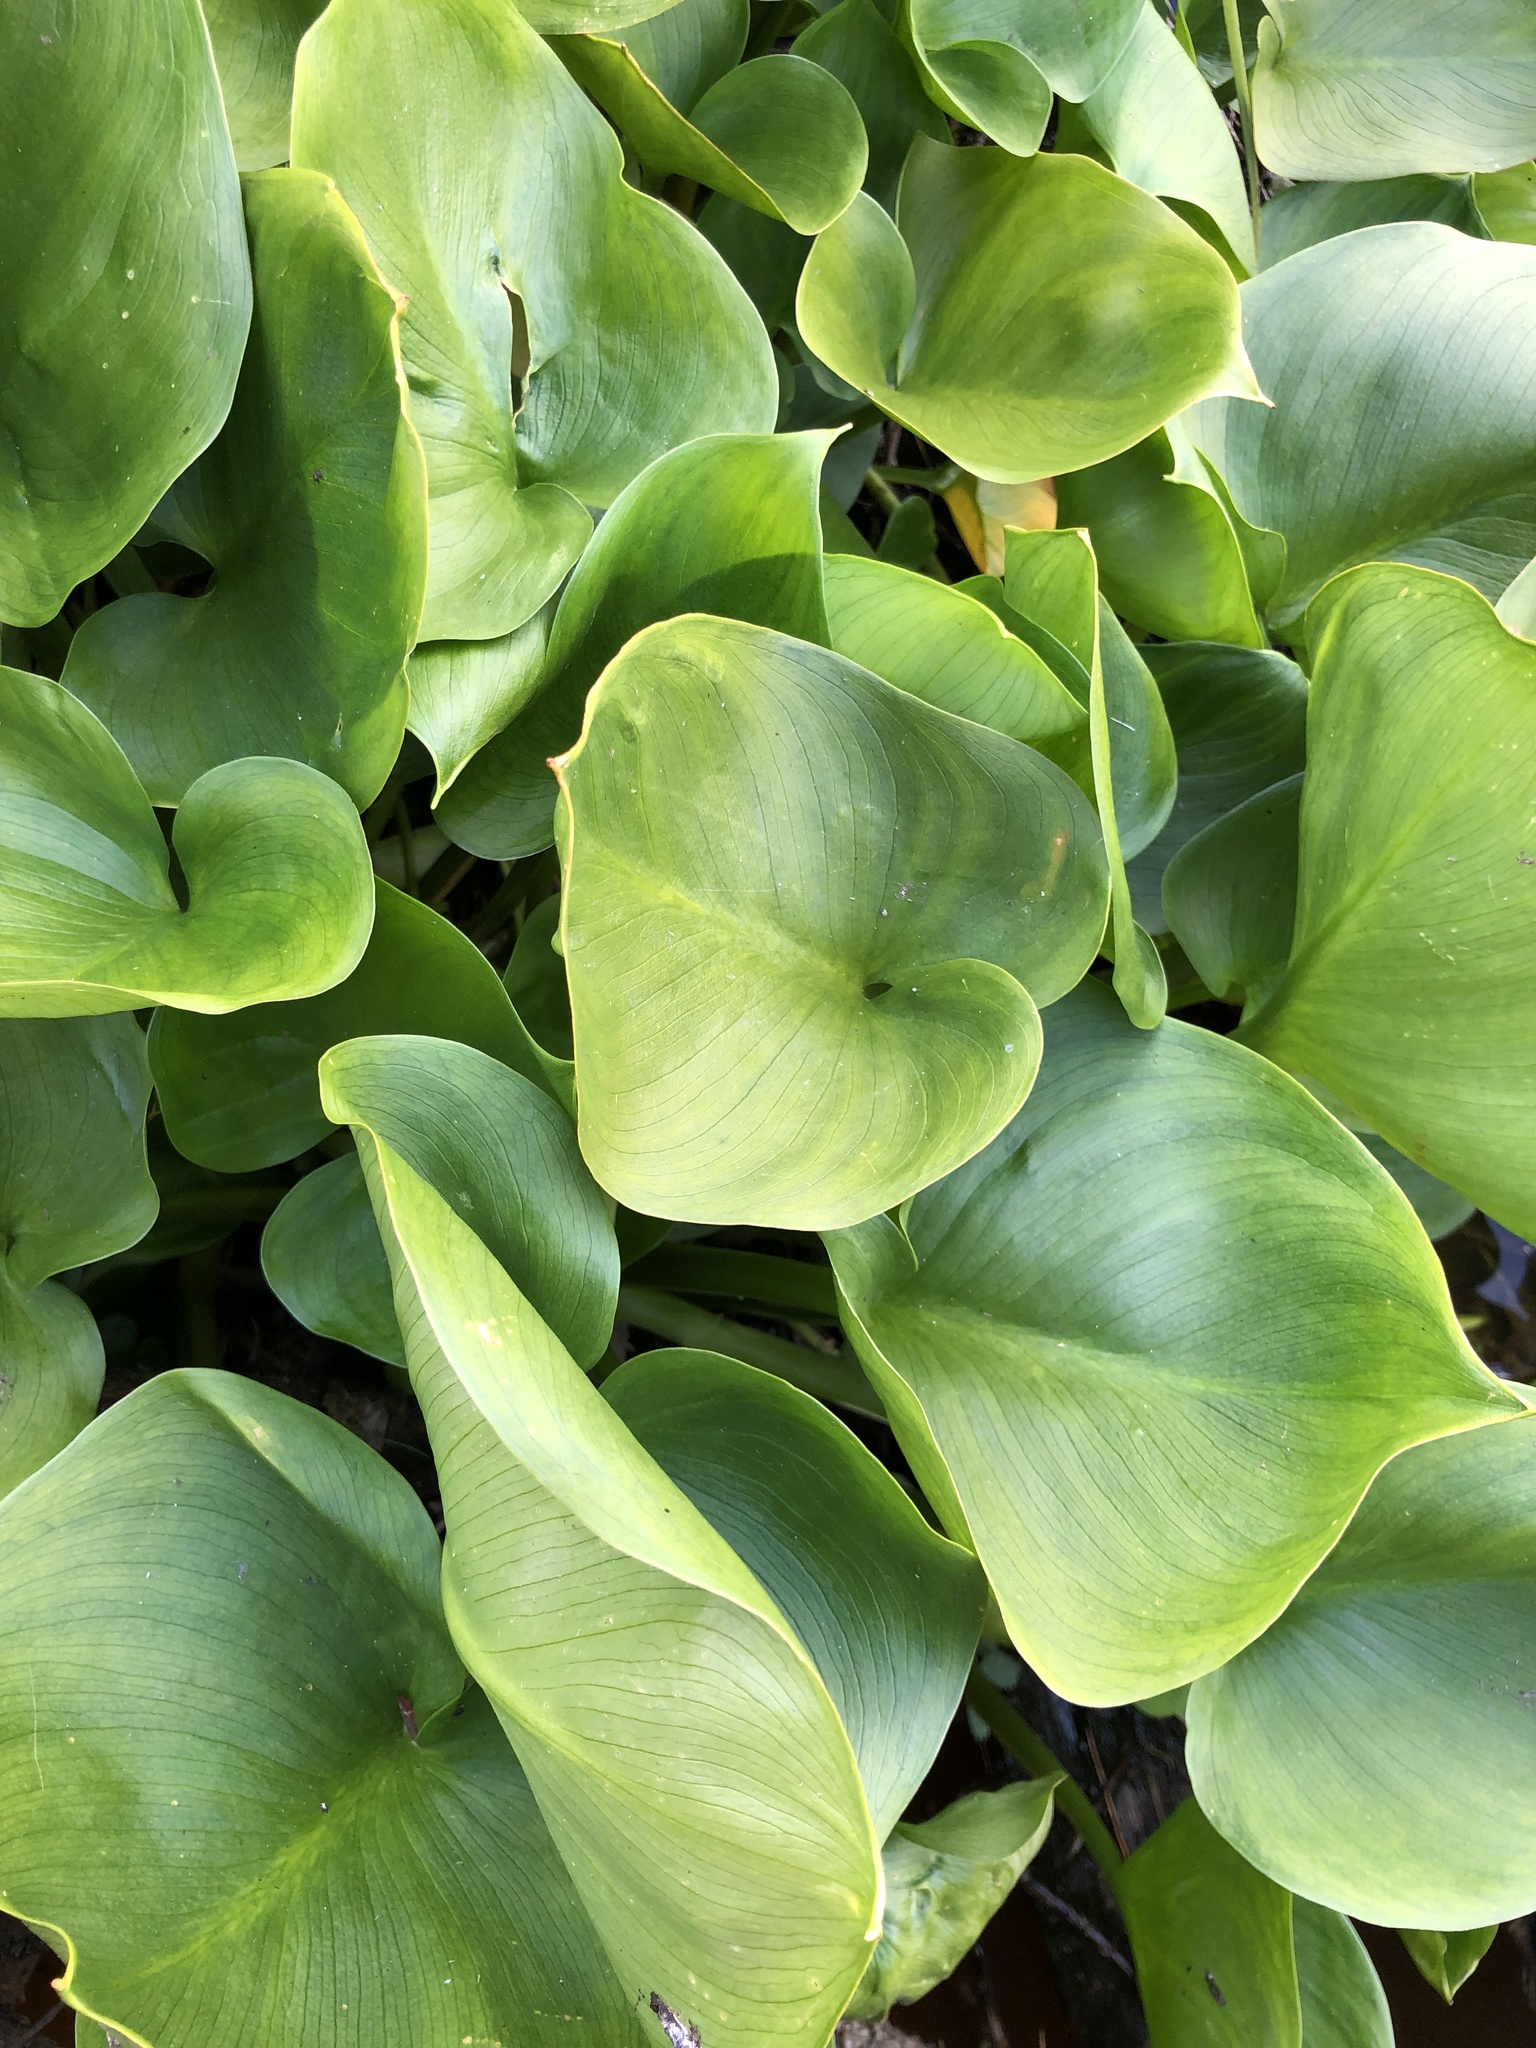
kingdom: Plantae
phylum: Tracheophyta
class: Liliopsida
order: Alismatales
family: Araceae
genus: Calla
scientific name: Calla palustris
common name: Bog arum
